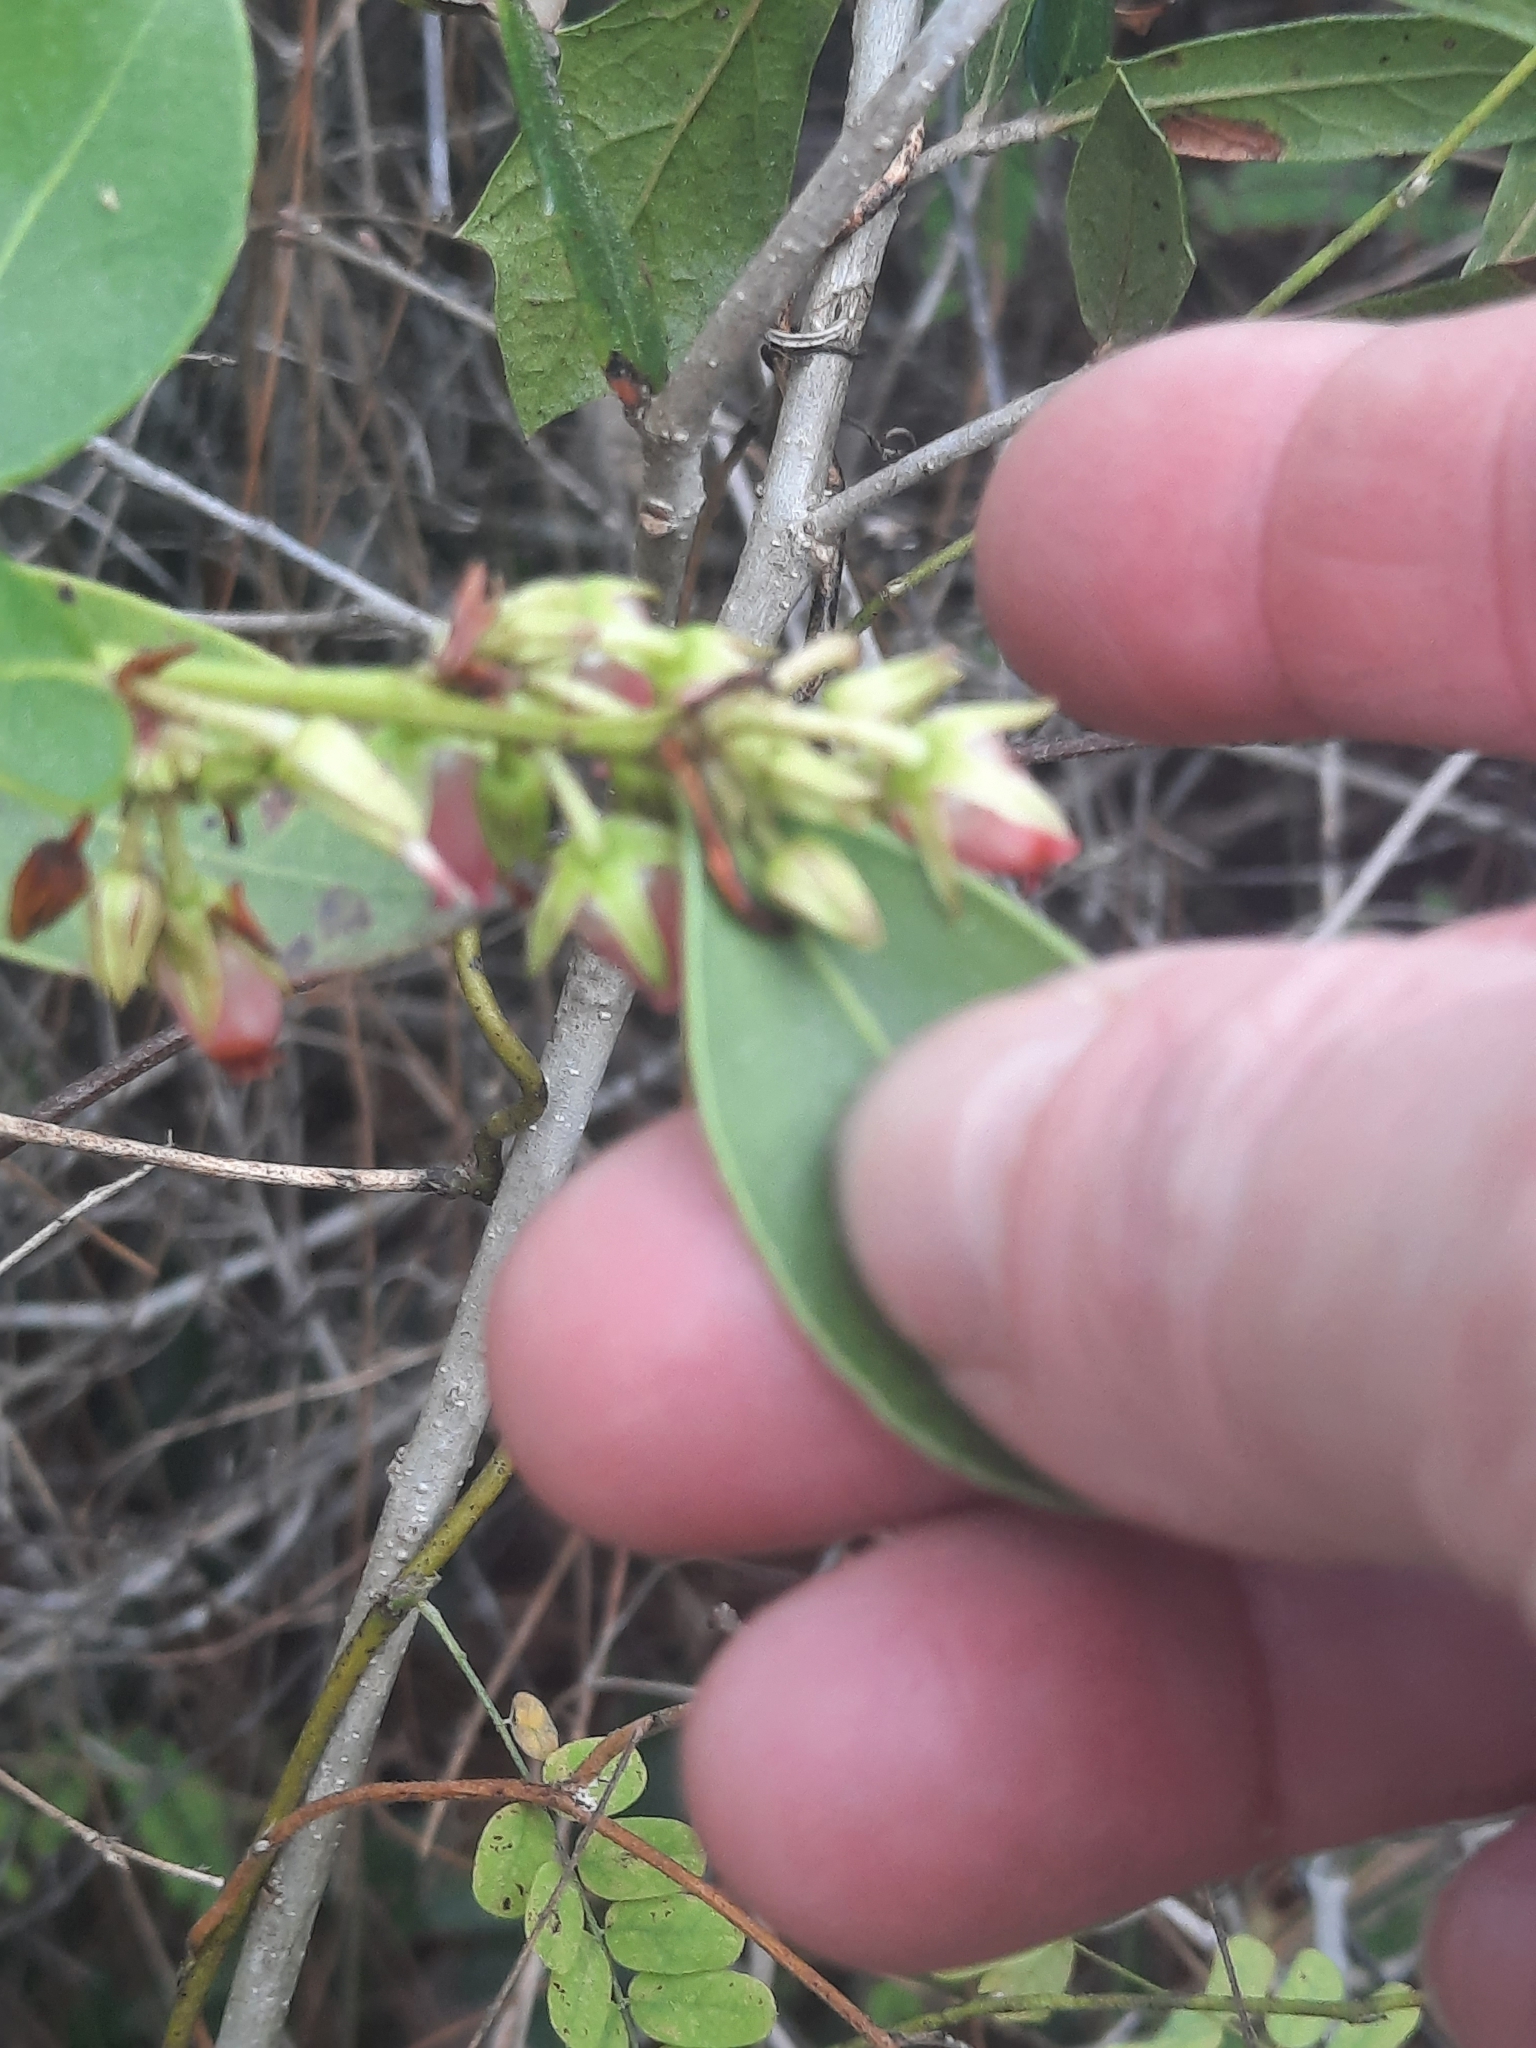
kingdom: Plantae
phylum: Tracheophyta
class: Magnoliopsida
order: Ericales
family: Ericaceae
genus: Lyonia
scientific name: Lyonia lucida
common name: Fetterbush
